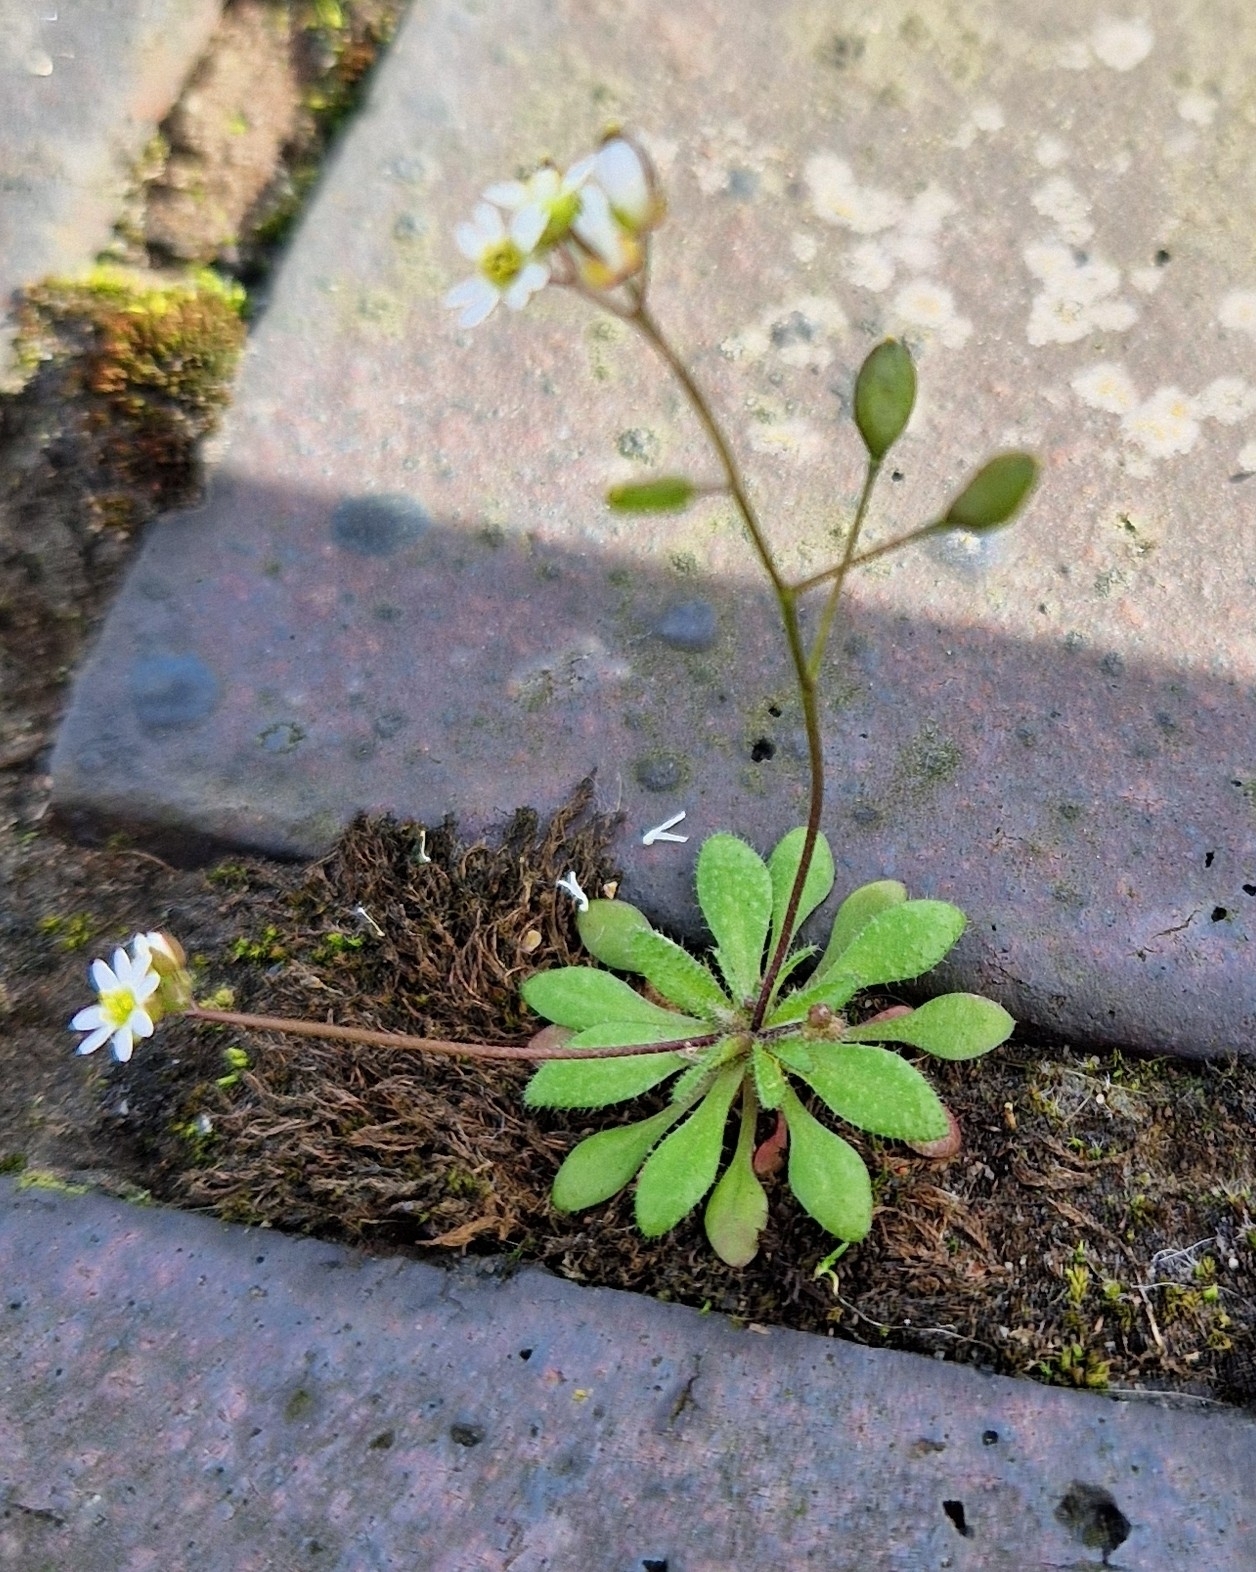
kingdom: Plantae
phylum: Tracheophyta
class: Magnoliopsida
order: Brassicales
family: Brassicaceae
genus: Draba
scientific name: Draba verna
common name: Spring draba
